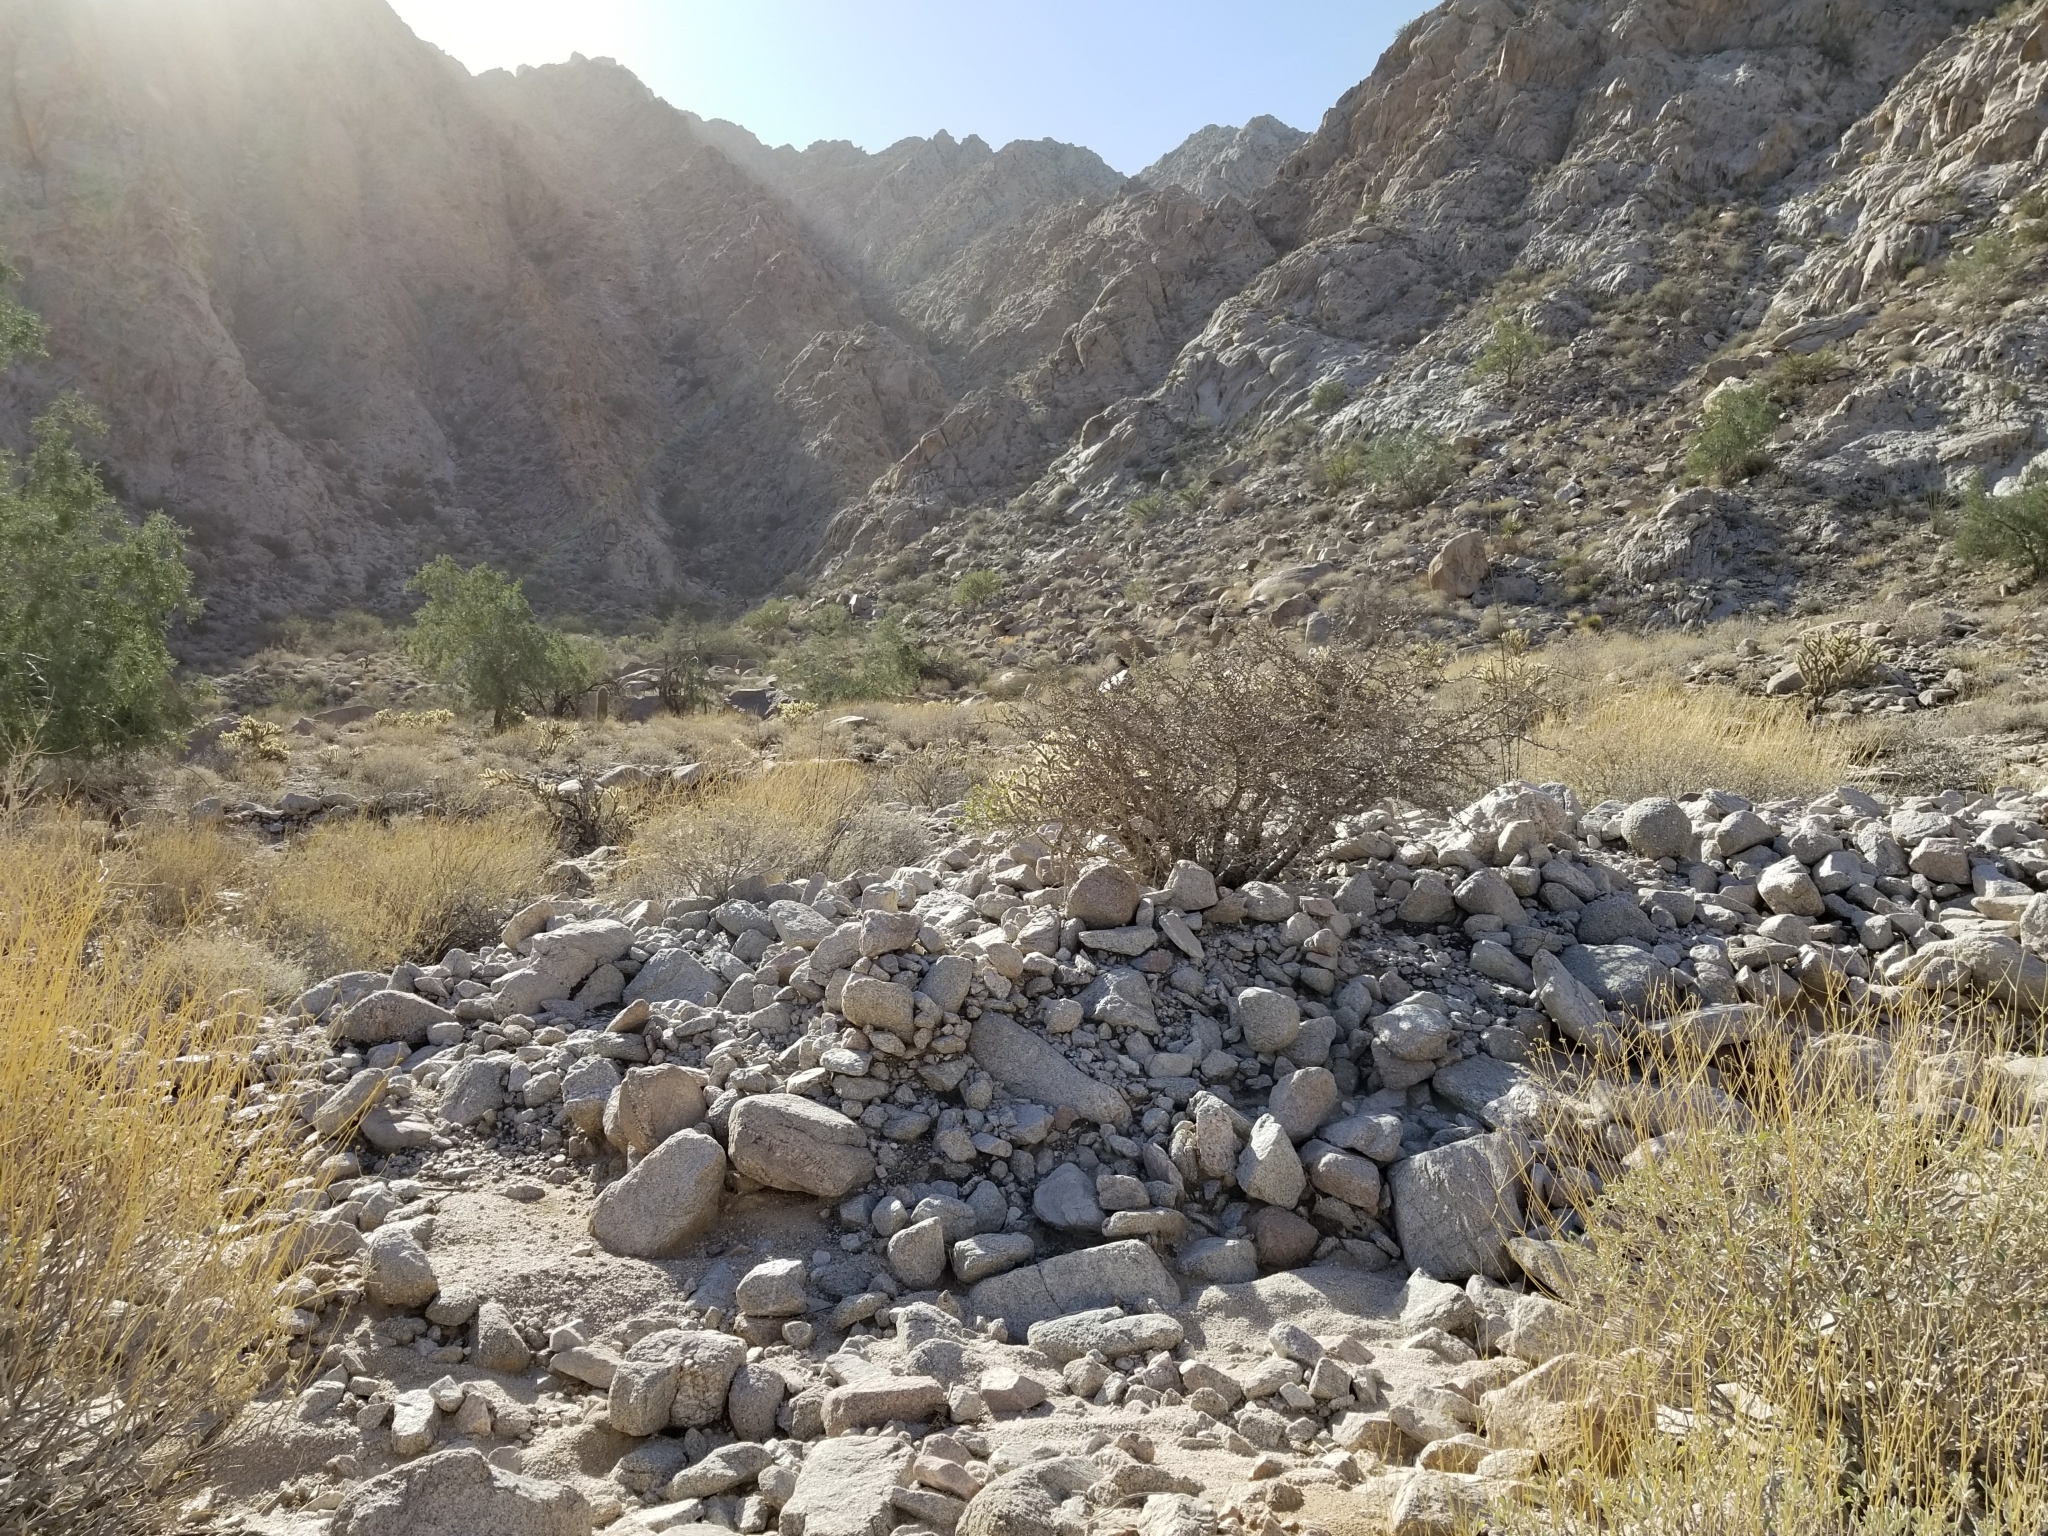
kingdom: Plantae
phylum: Tracheophyta
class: Magnoliopsida
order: Malpighiales
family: Euphorbiaceae
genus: Jatropha
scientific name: Jatropha cuneata
